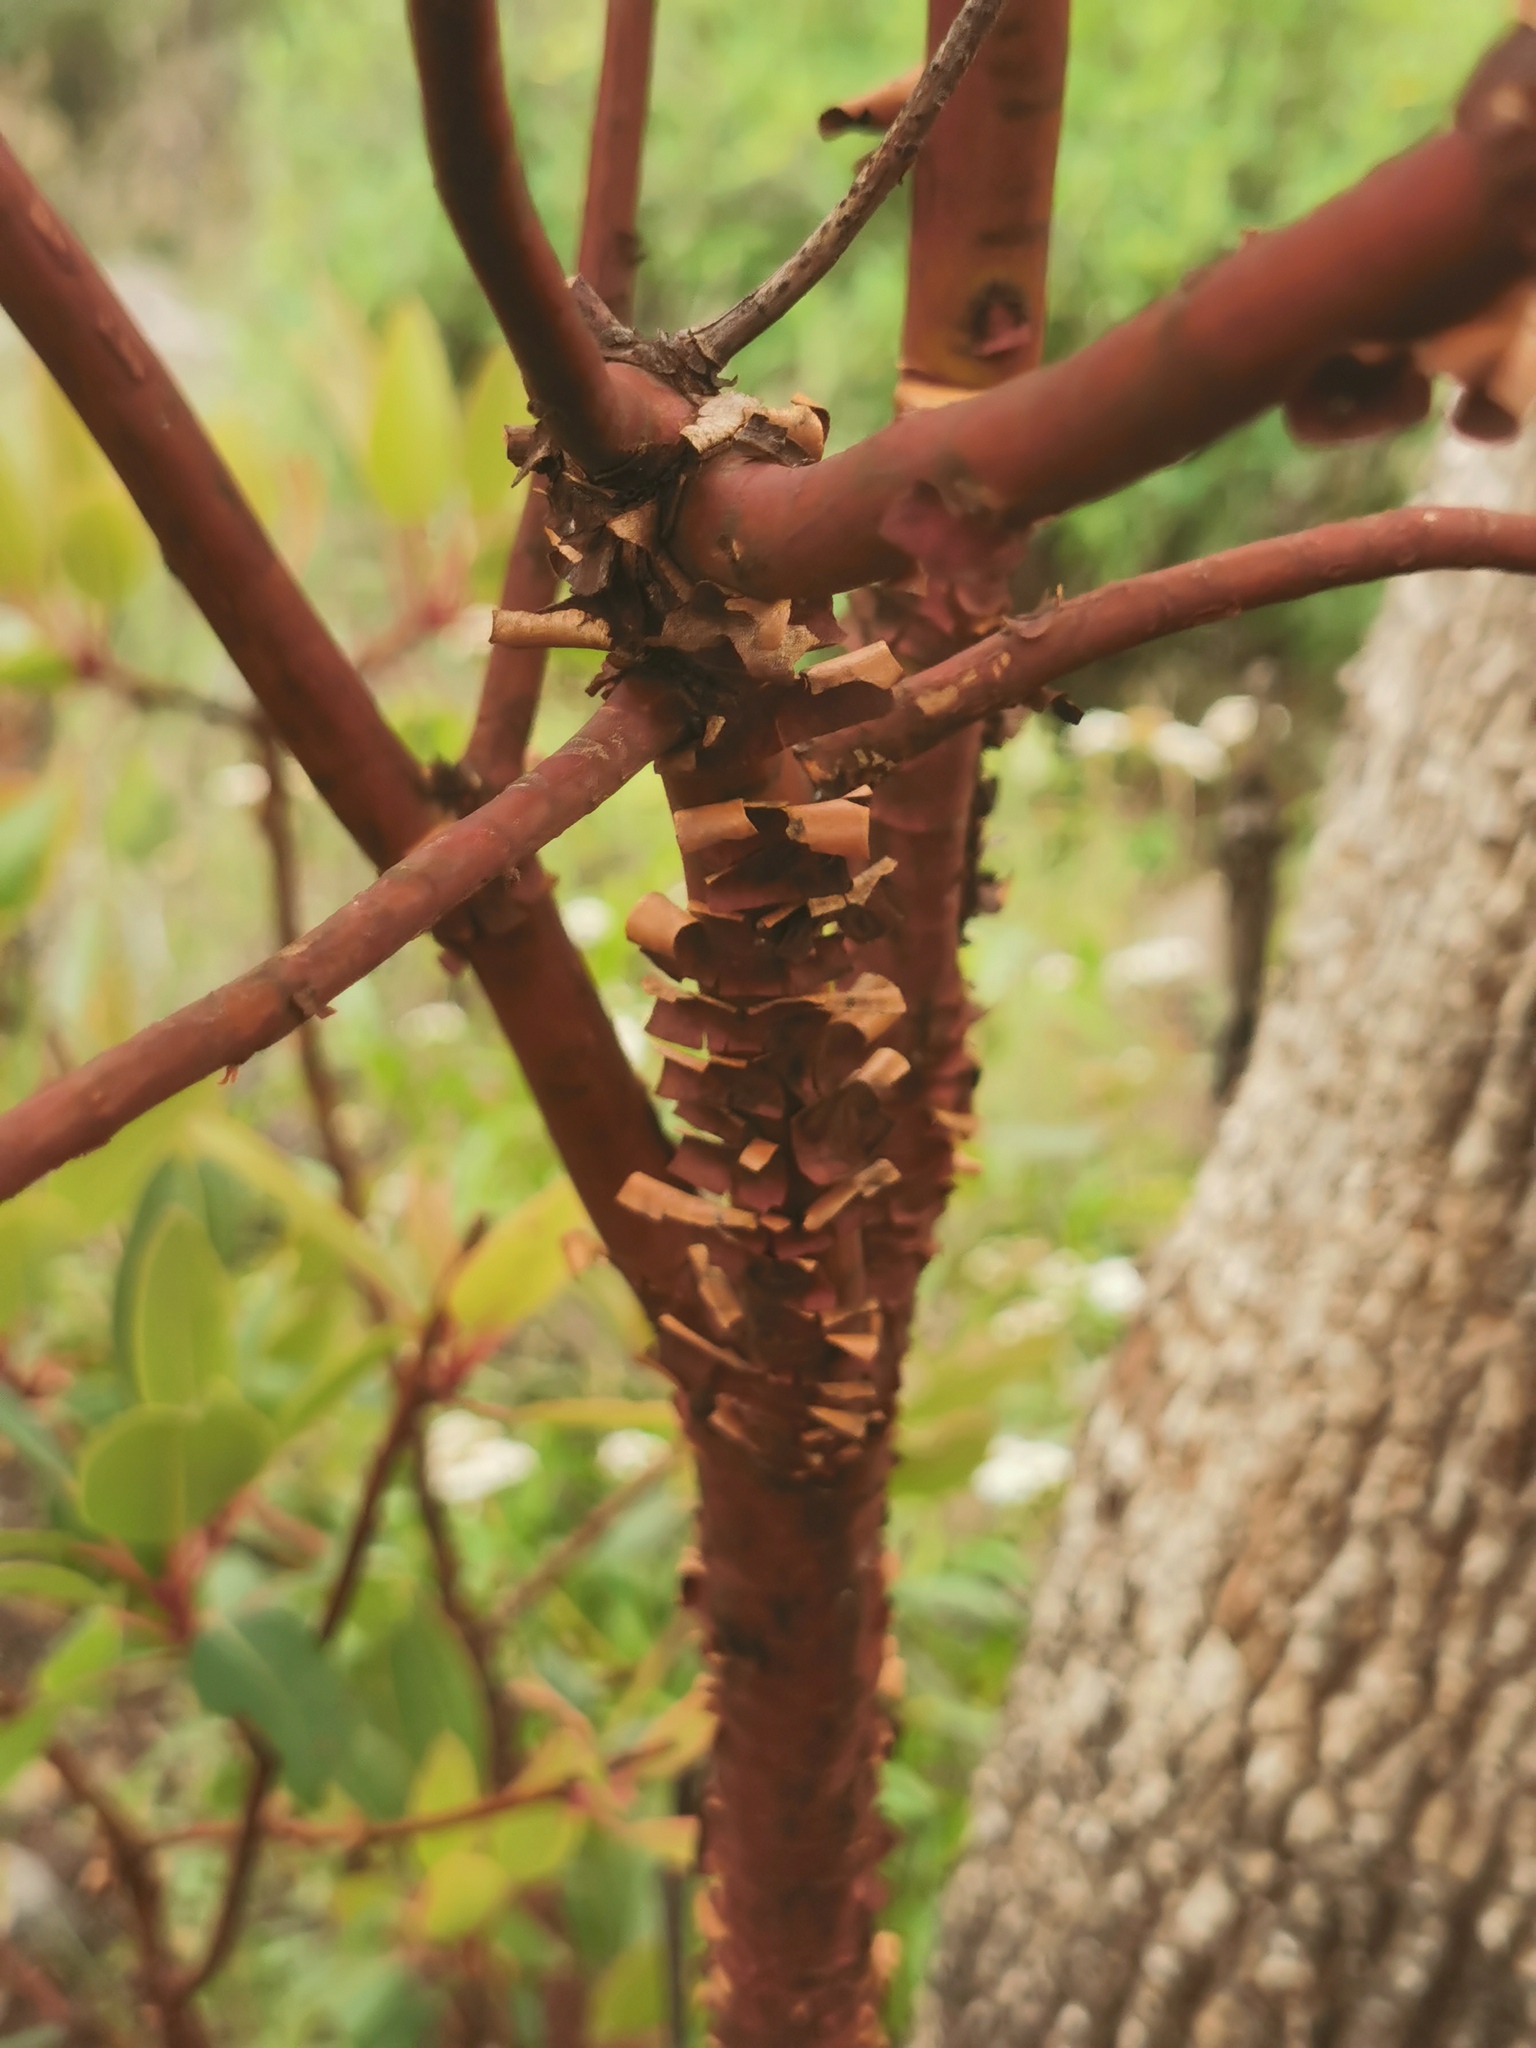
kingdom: Plantae
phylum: Tracheophyta
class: Magnoliopsida
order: Ericales
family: Ericaceae
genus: Arbutus
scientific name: Arbutus arizonica
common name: Arizona madrone
